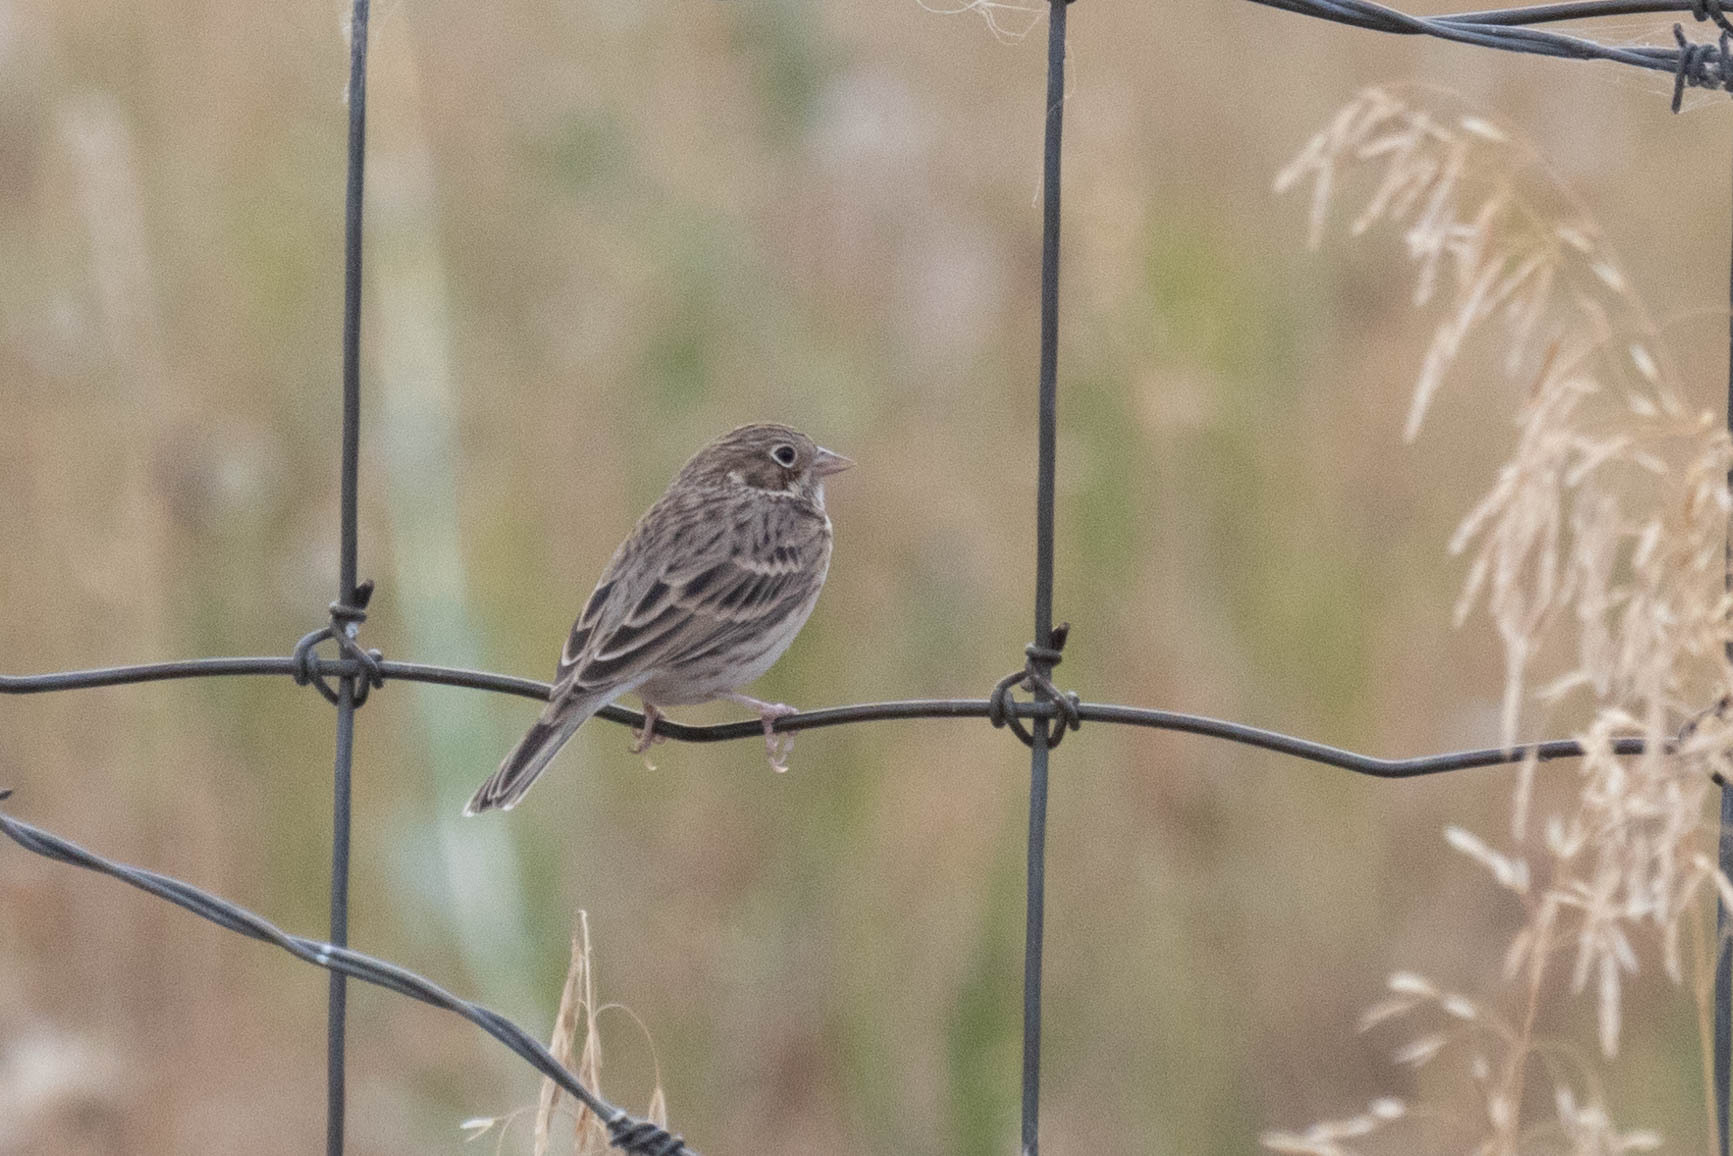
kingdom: Animalia
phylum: Chordata
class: Aves
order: Passeriformes
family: Passerellidae
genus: Pooecetes
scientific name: Pooecetes gramineus
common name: Vesper sparrow
